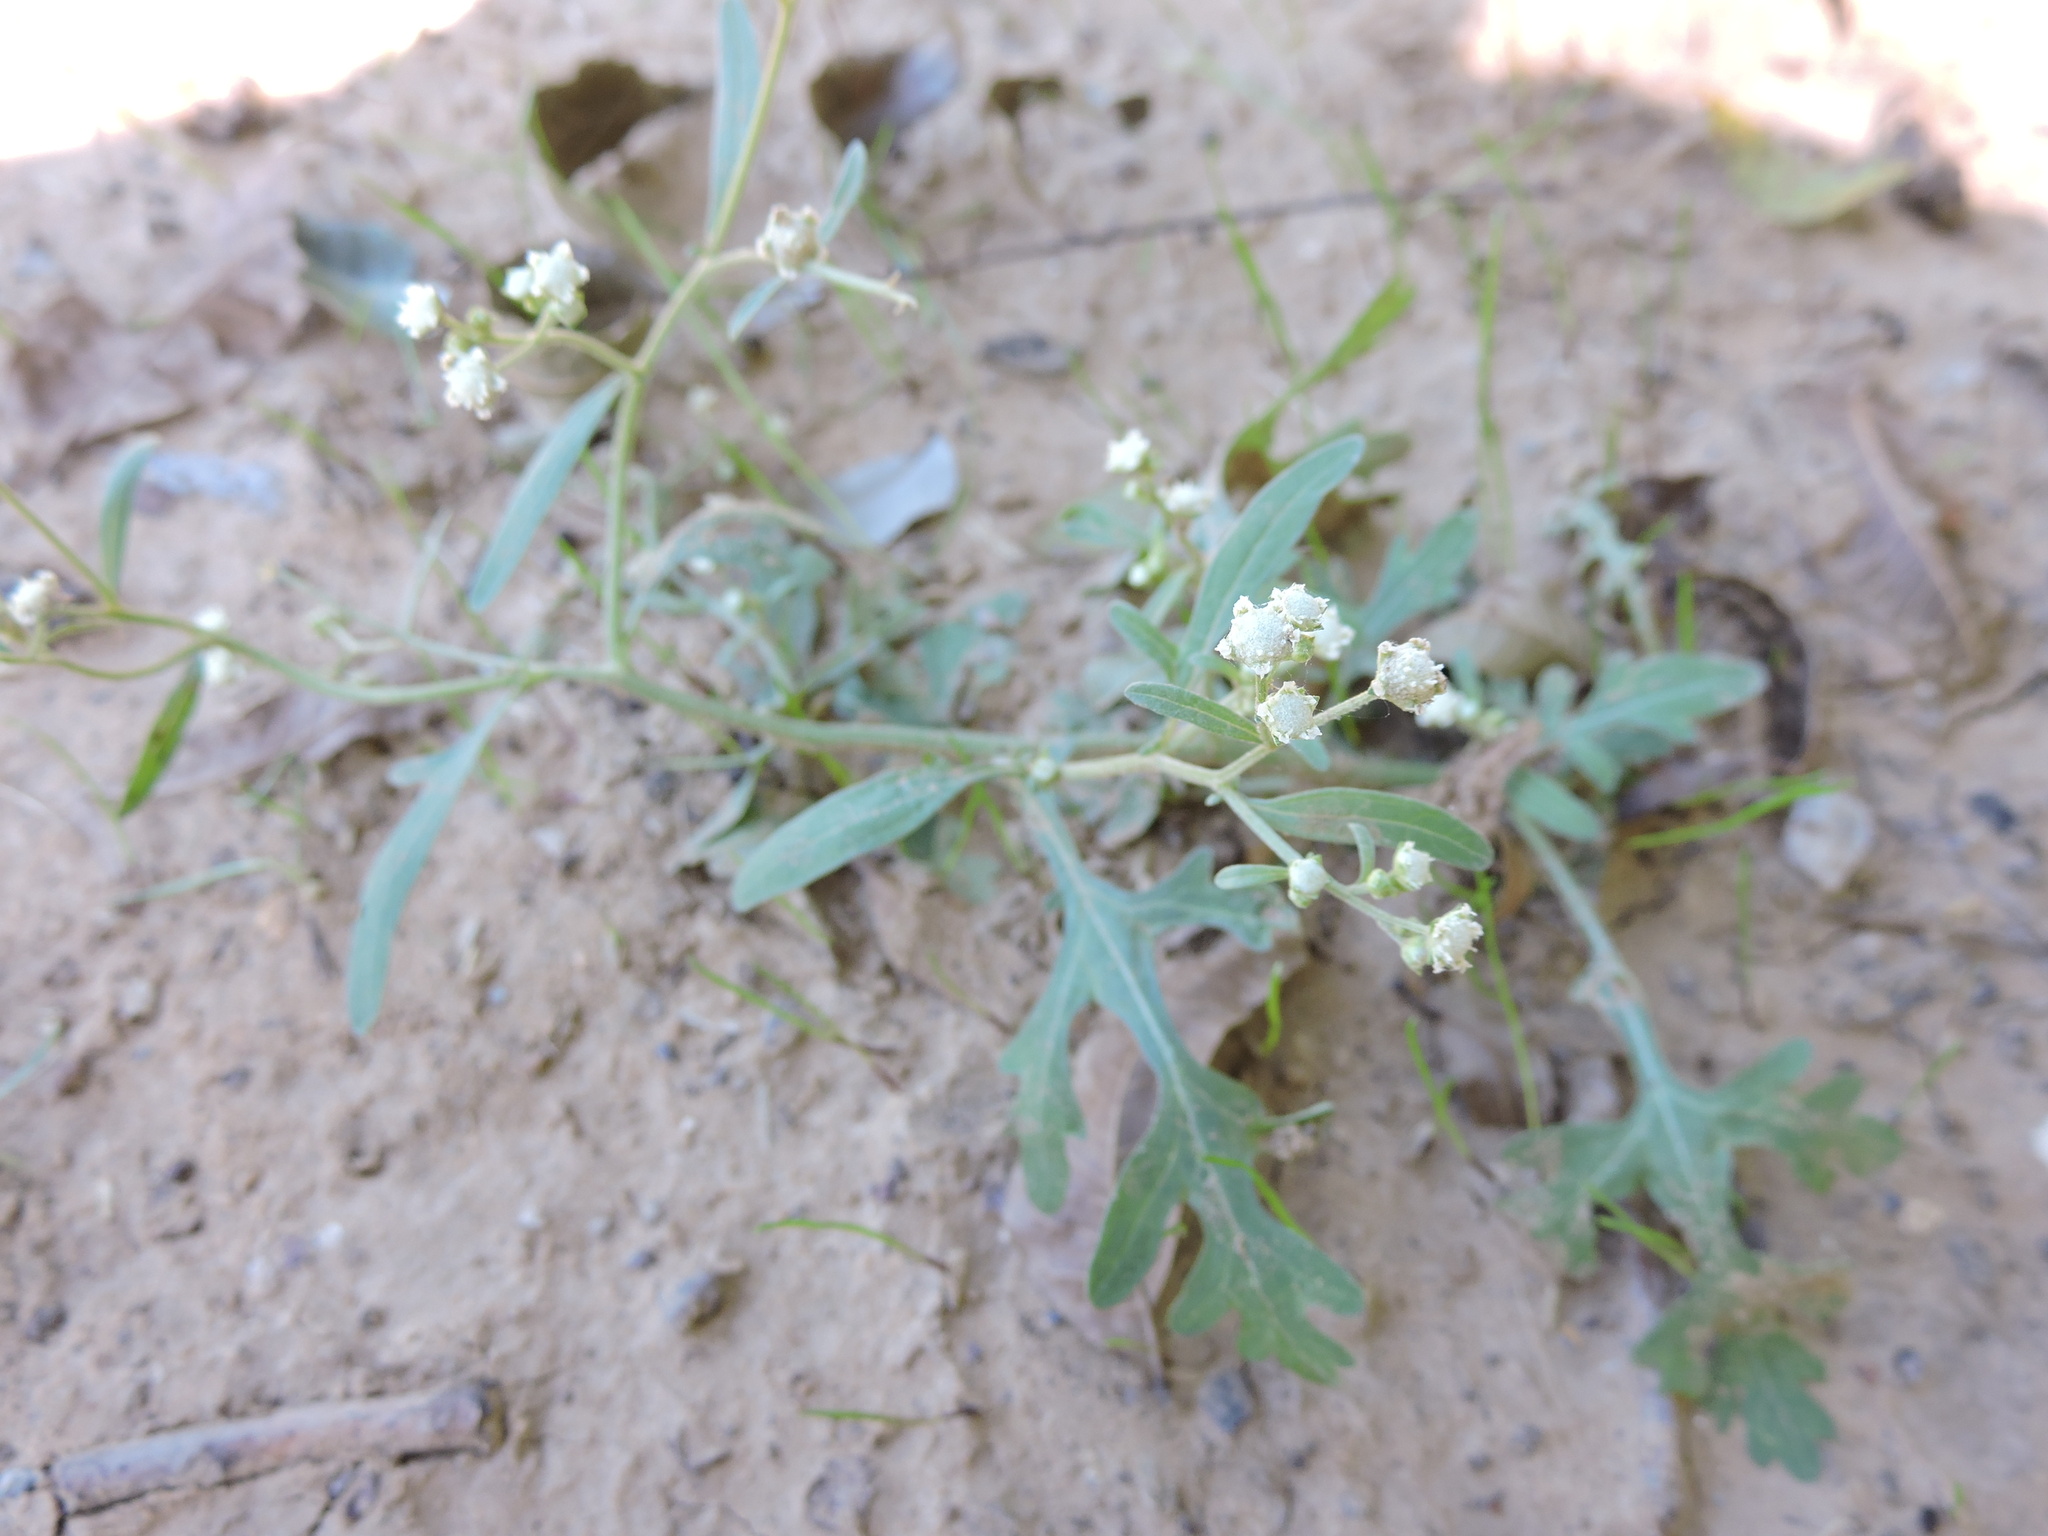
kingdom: Plantae
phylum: Tracheophyta
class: Magnoliopsida
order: Asterales
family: Asteraceae
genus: Parthenium
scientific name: Parthenium hysterophorus
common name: Santa maria feverfew
